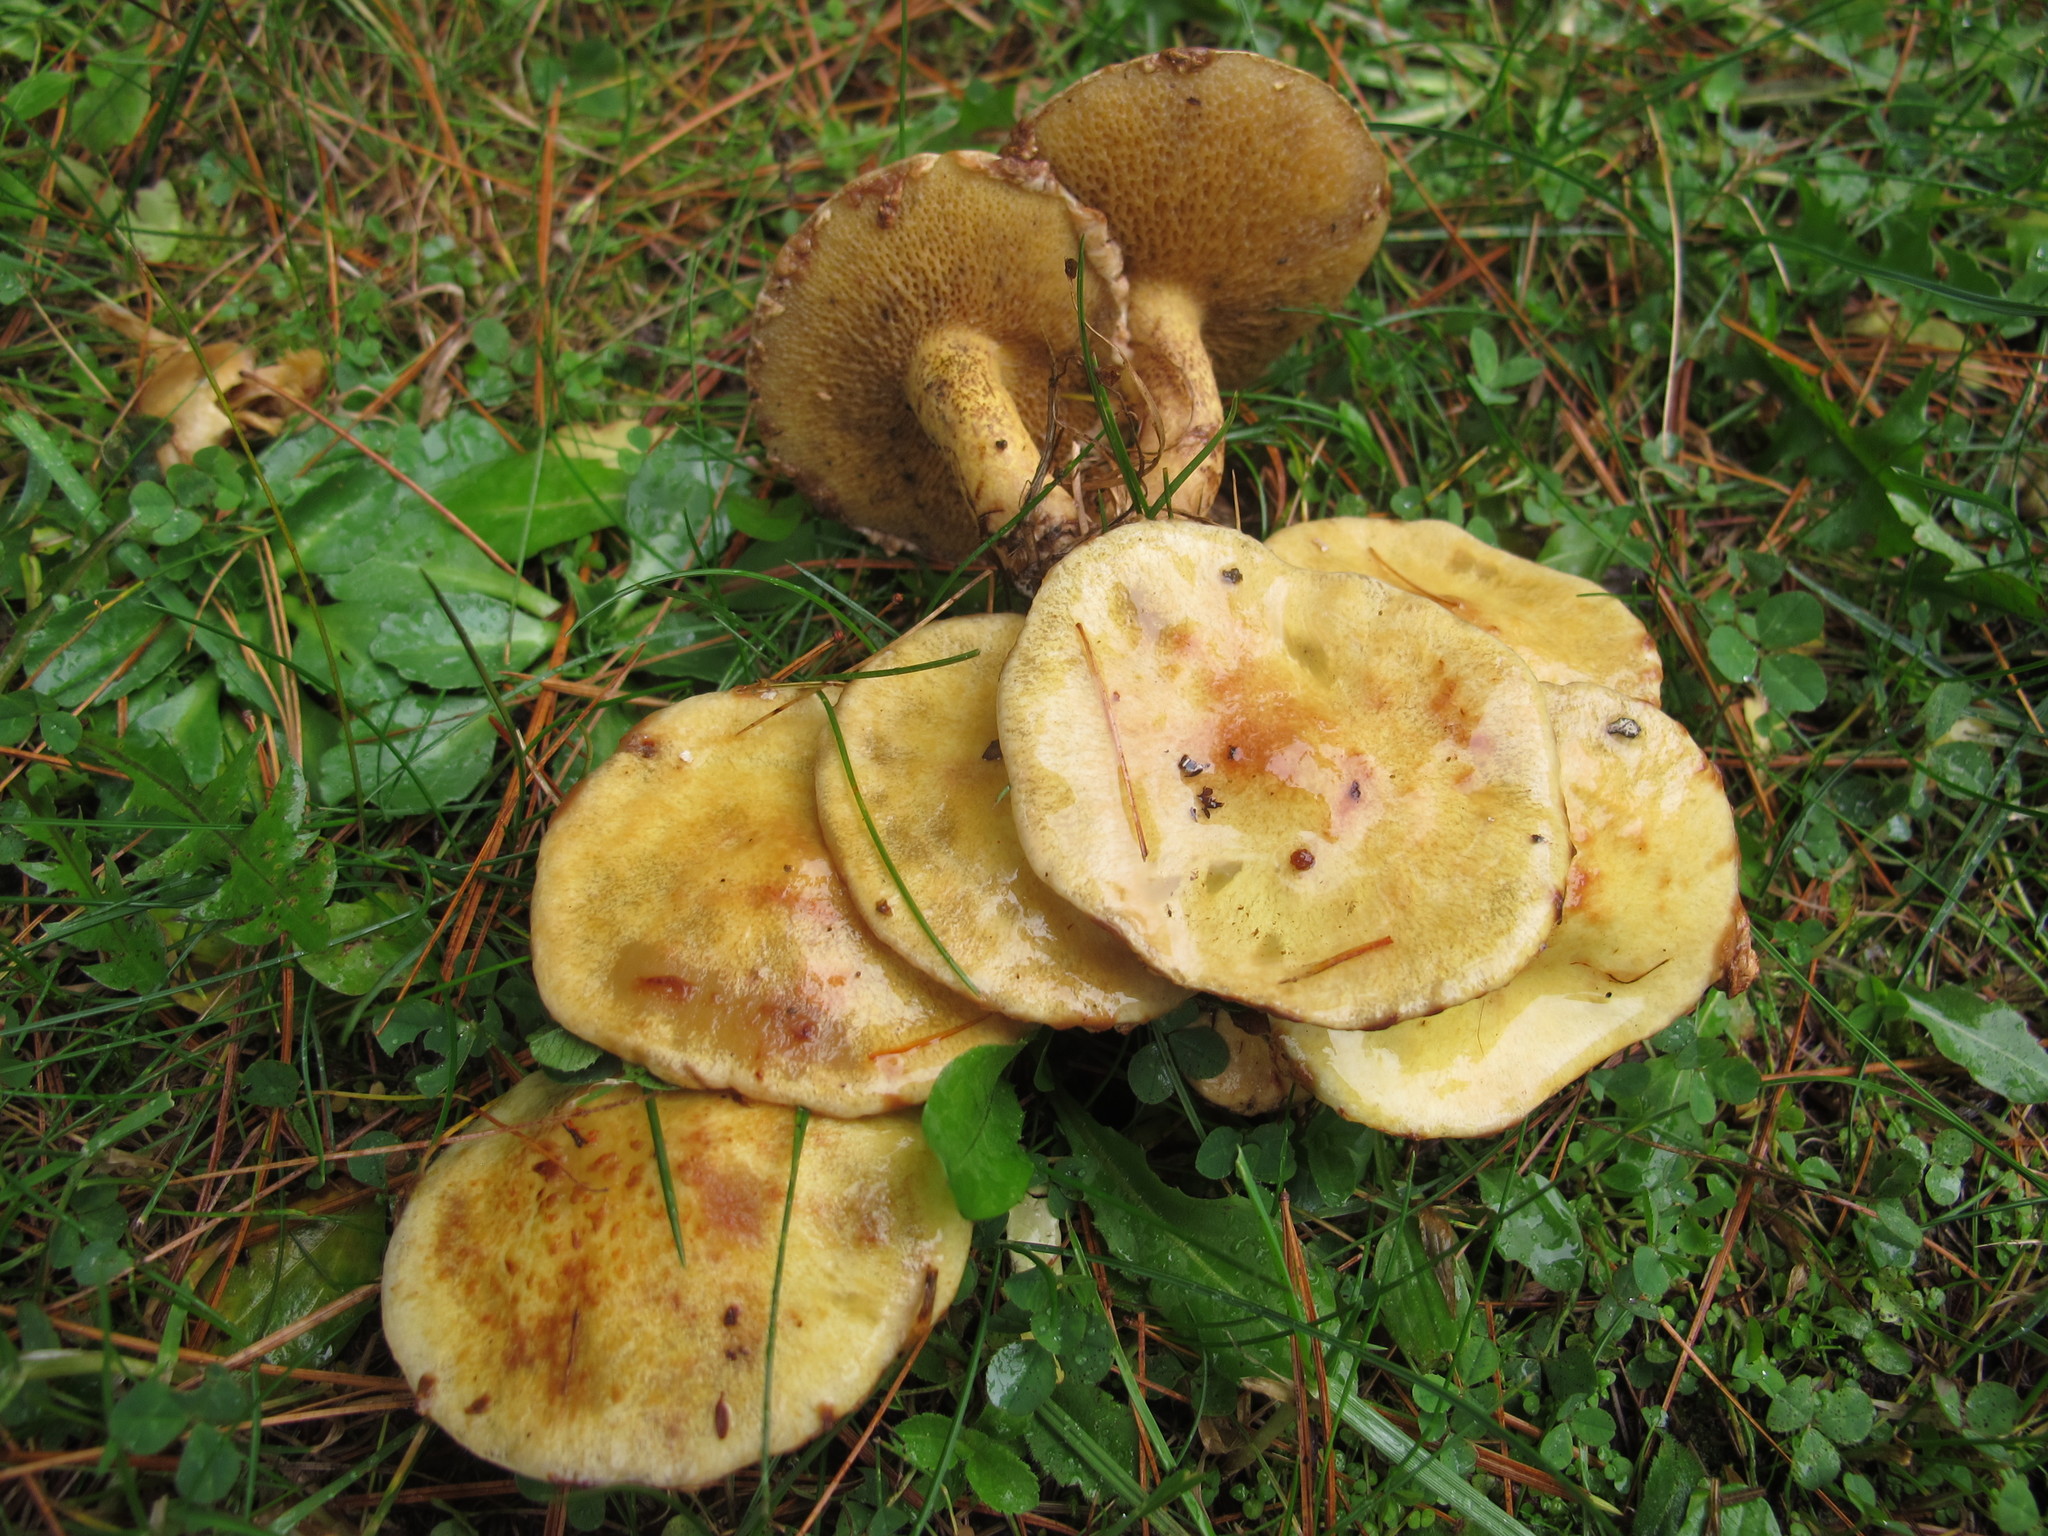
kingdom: Fungi
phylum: Basidiomycota
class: Agaricomycetes
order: Boletales
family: Suillaceae
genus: Suillus
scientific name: Suillus americanus
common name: Chicken fat mushroom
